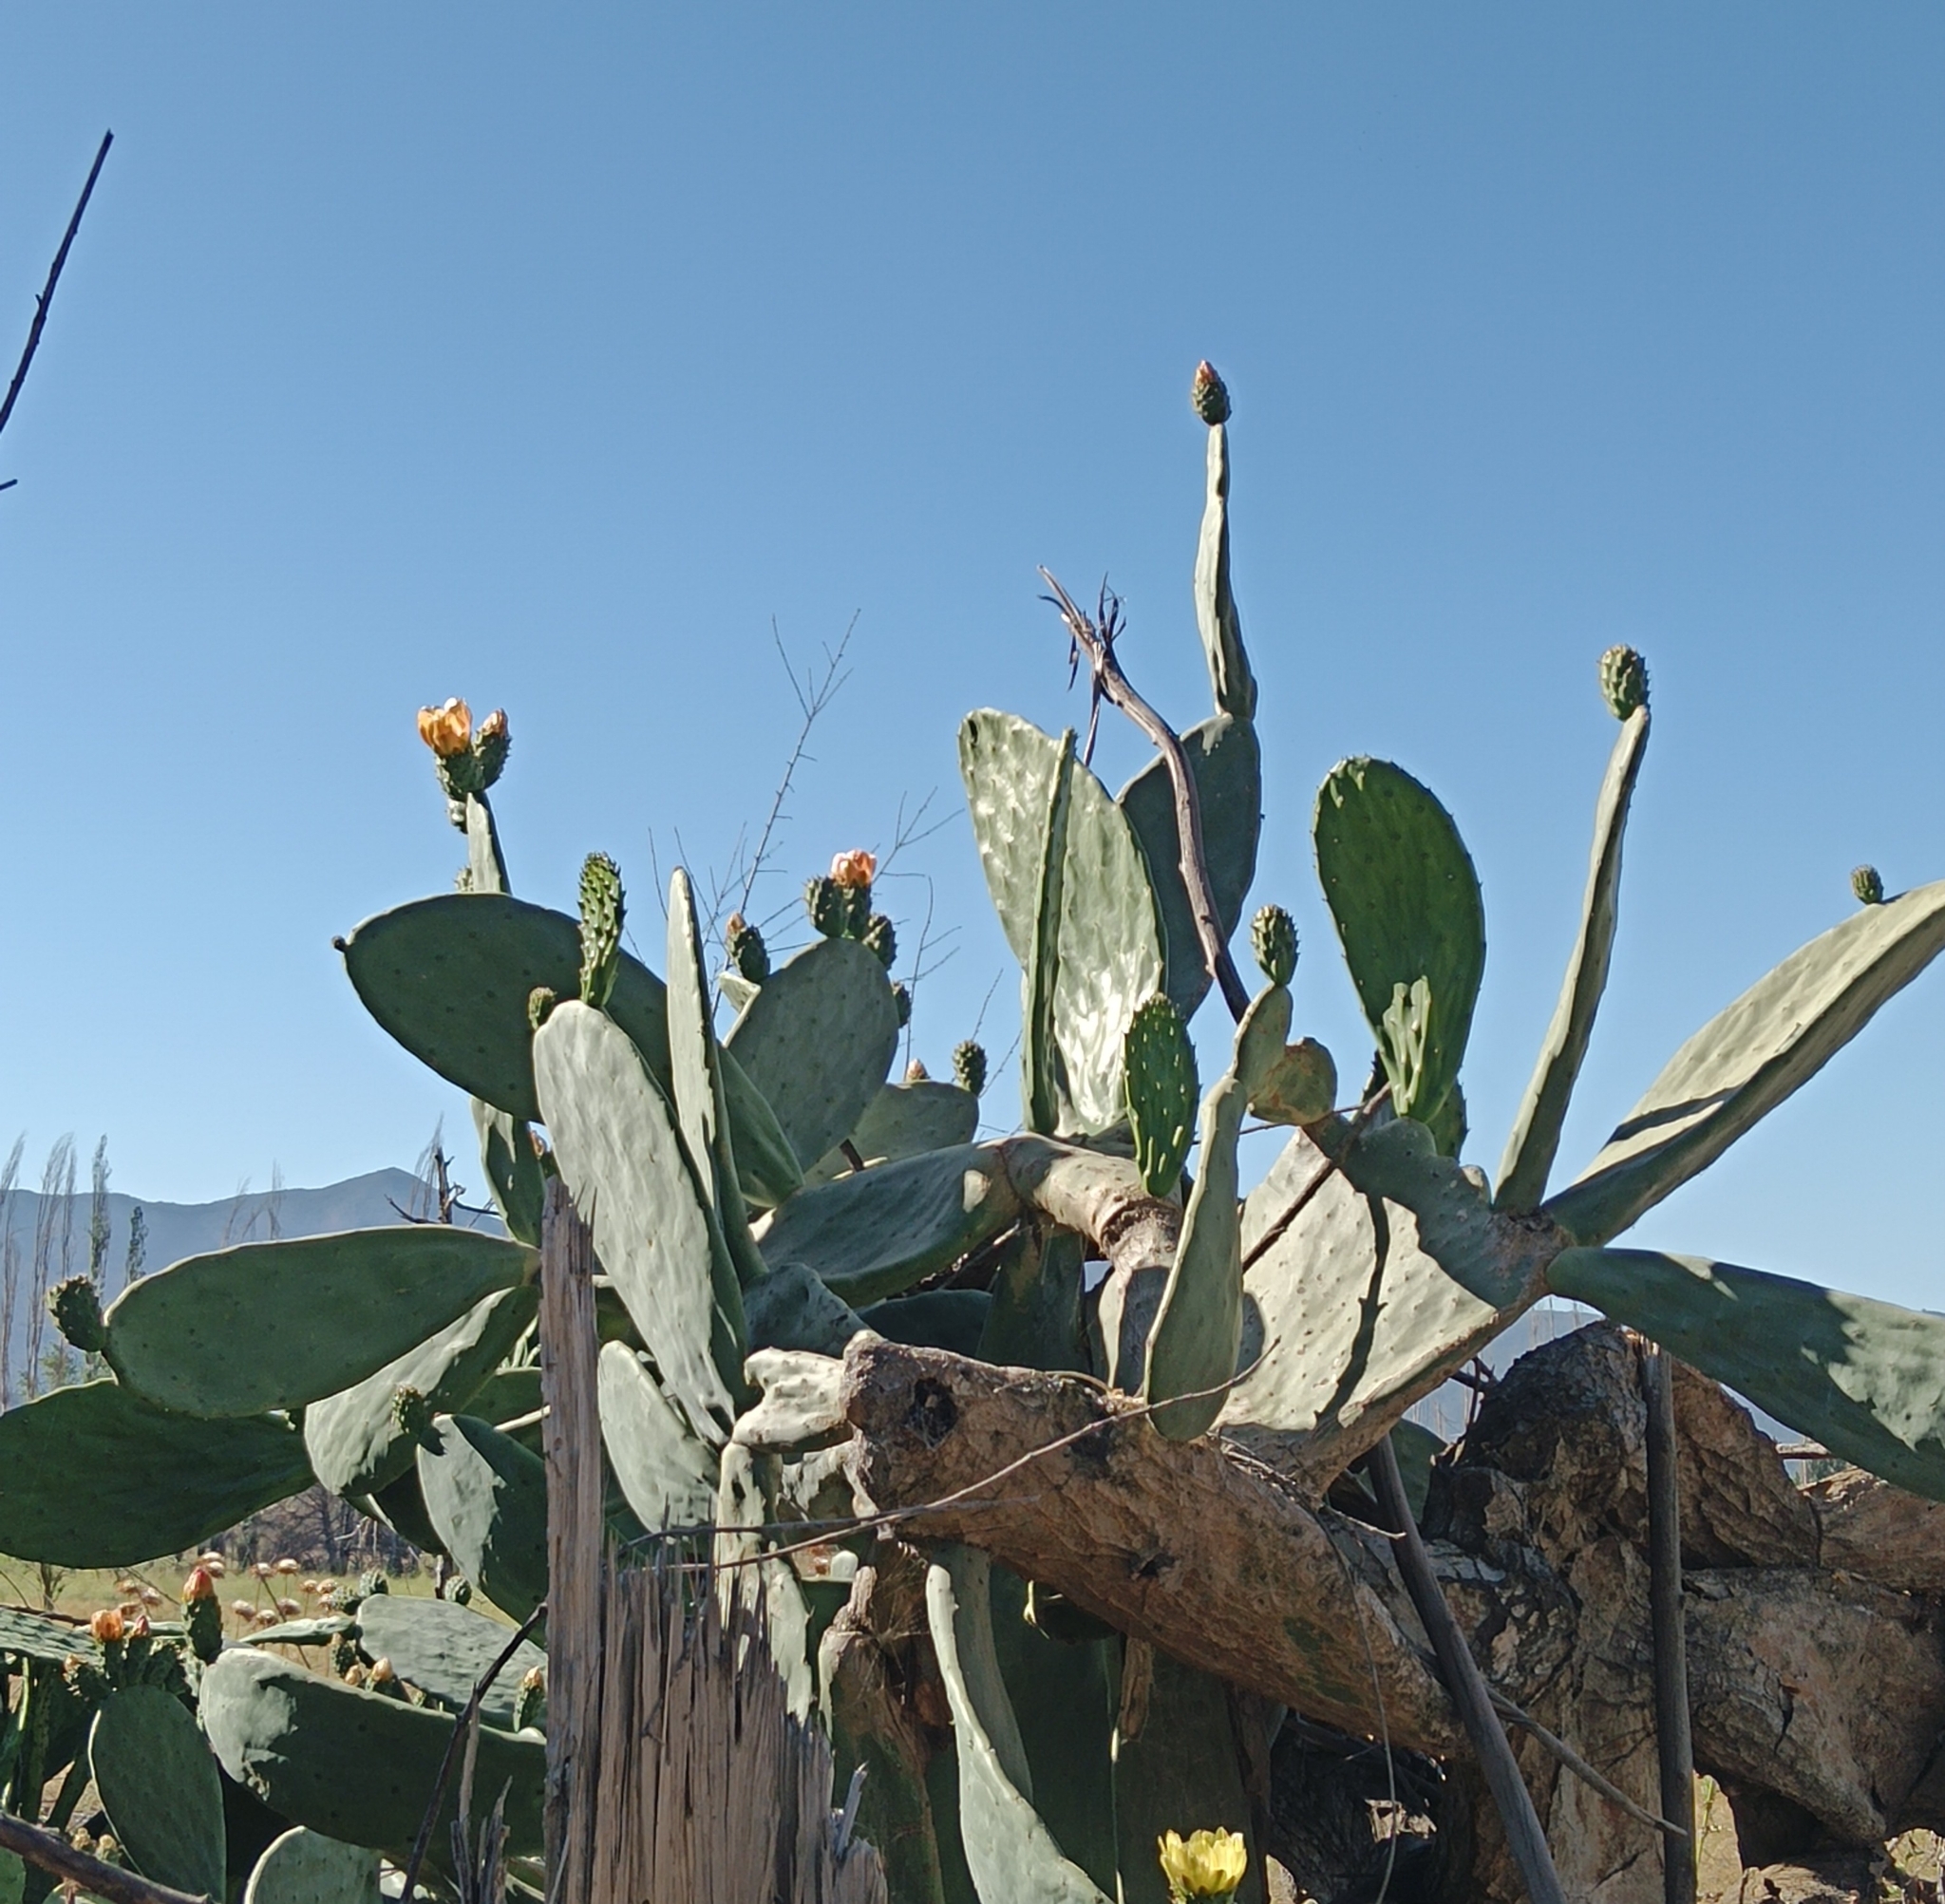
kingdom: Plantae
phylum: Tracheophyta
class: Magnoliopsida
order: Caryophyllales
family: Cactaceae
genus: Opuntia
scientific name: Opuntia ficus-indica
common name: Barbary fig
